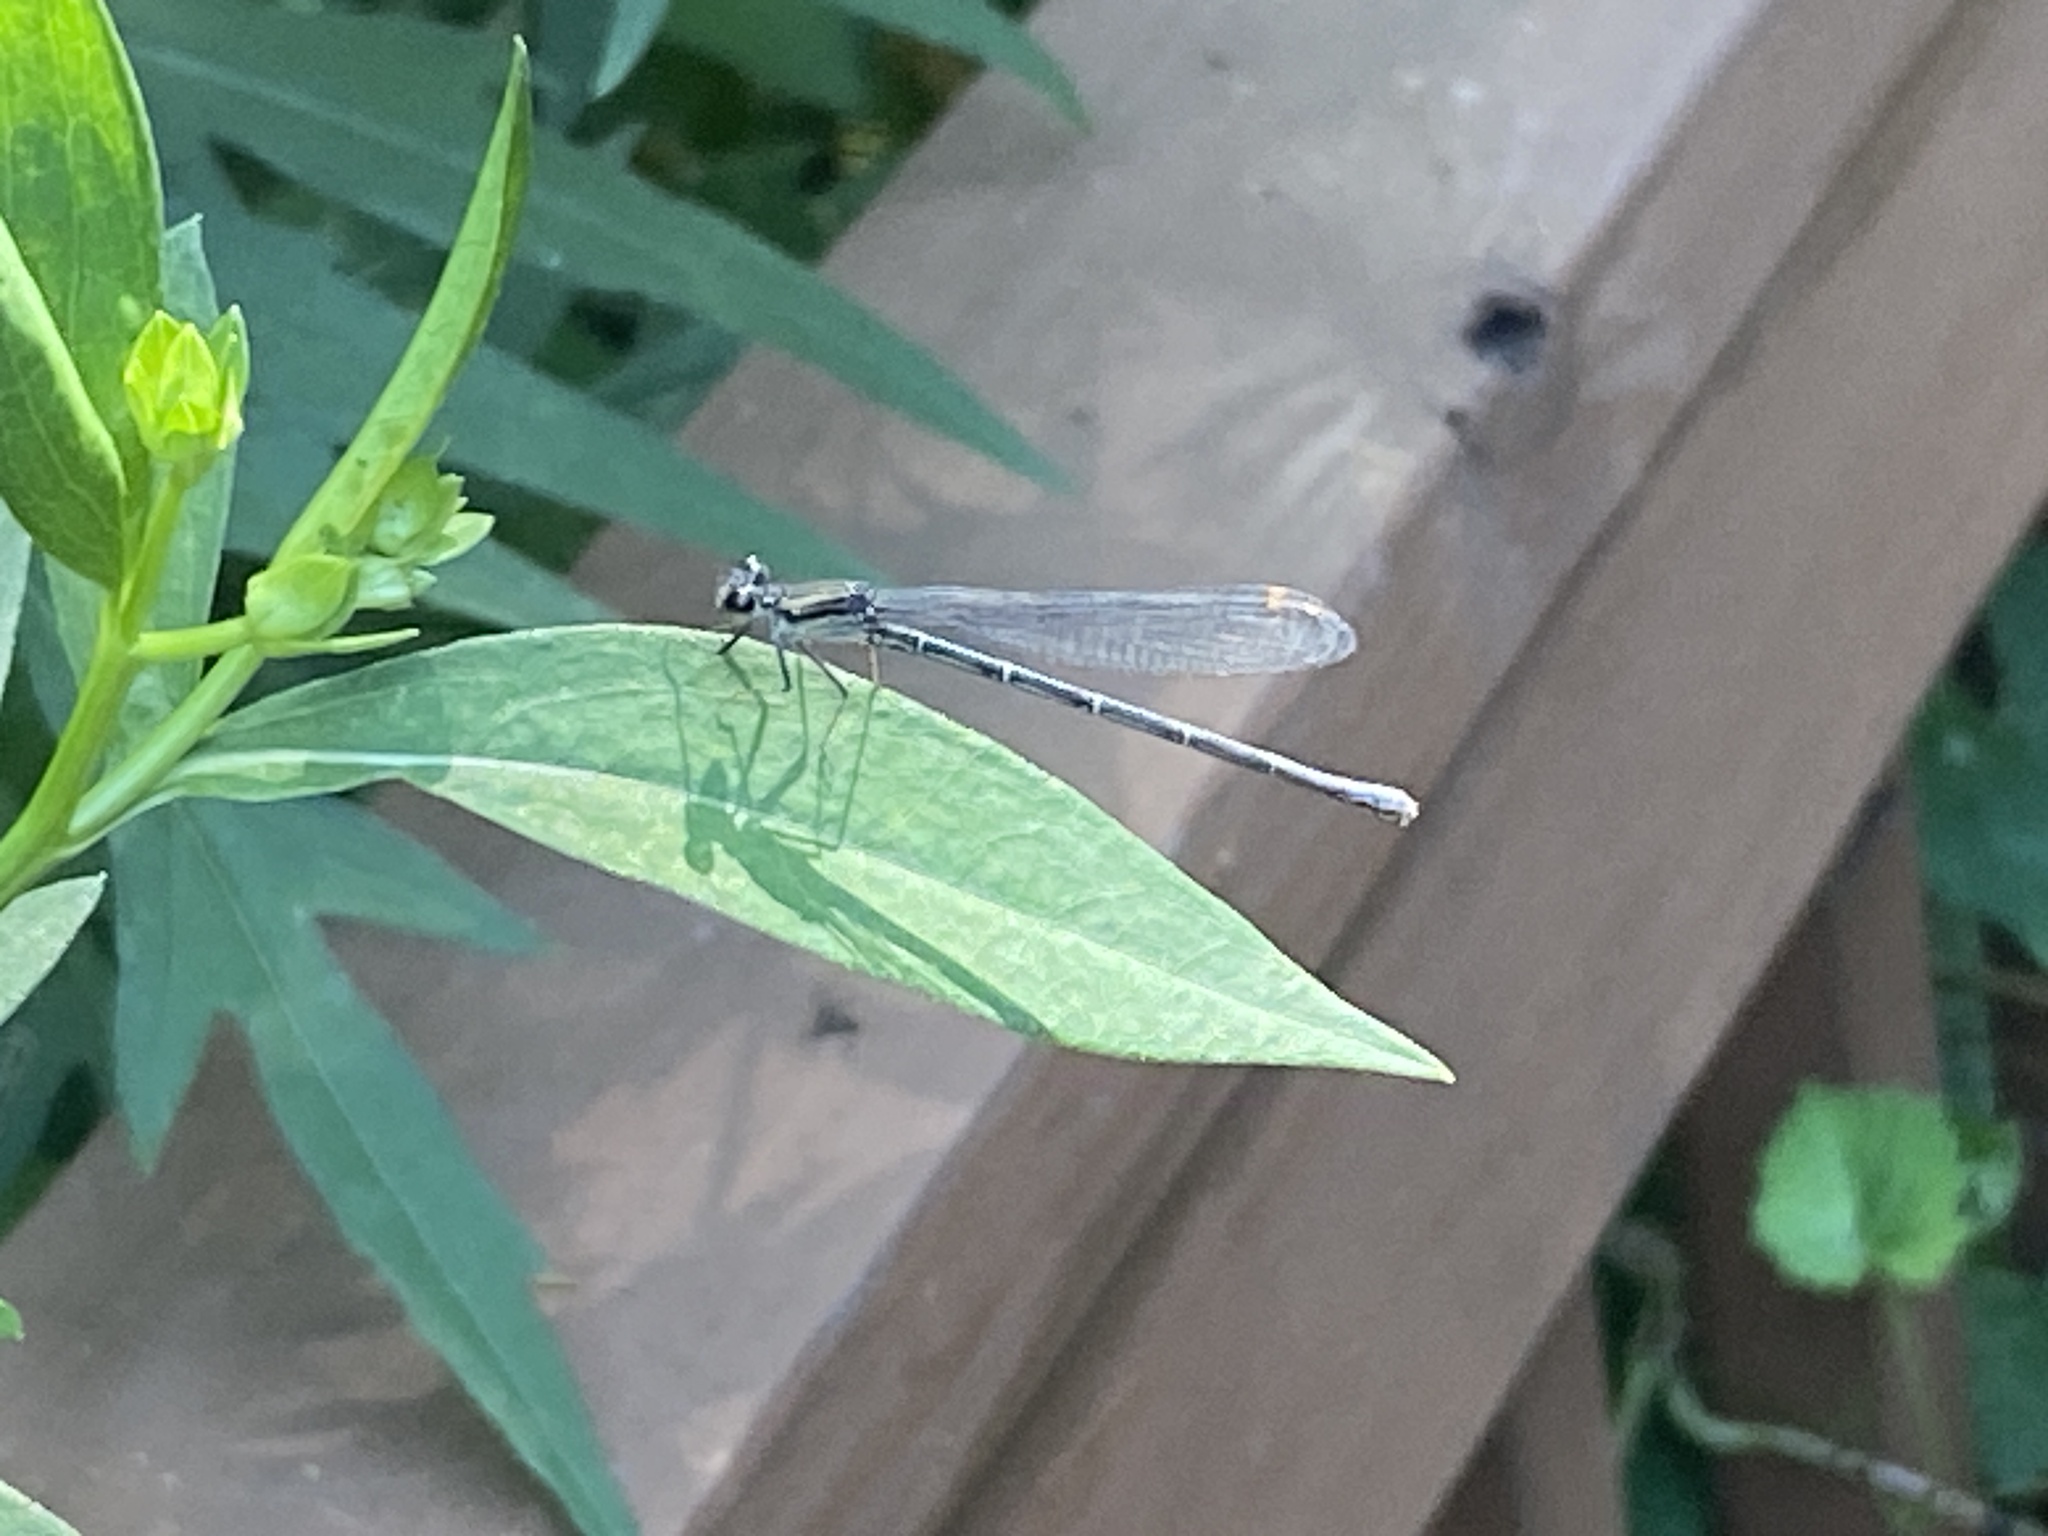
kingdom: Animalia
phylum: Arthropoda
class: Insecta
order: Odonata
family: Coenagrionidae
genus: Argia
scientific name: Argia translata
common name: Dusky dancer
